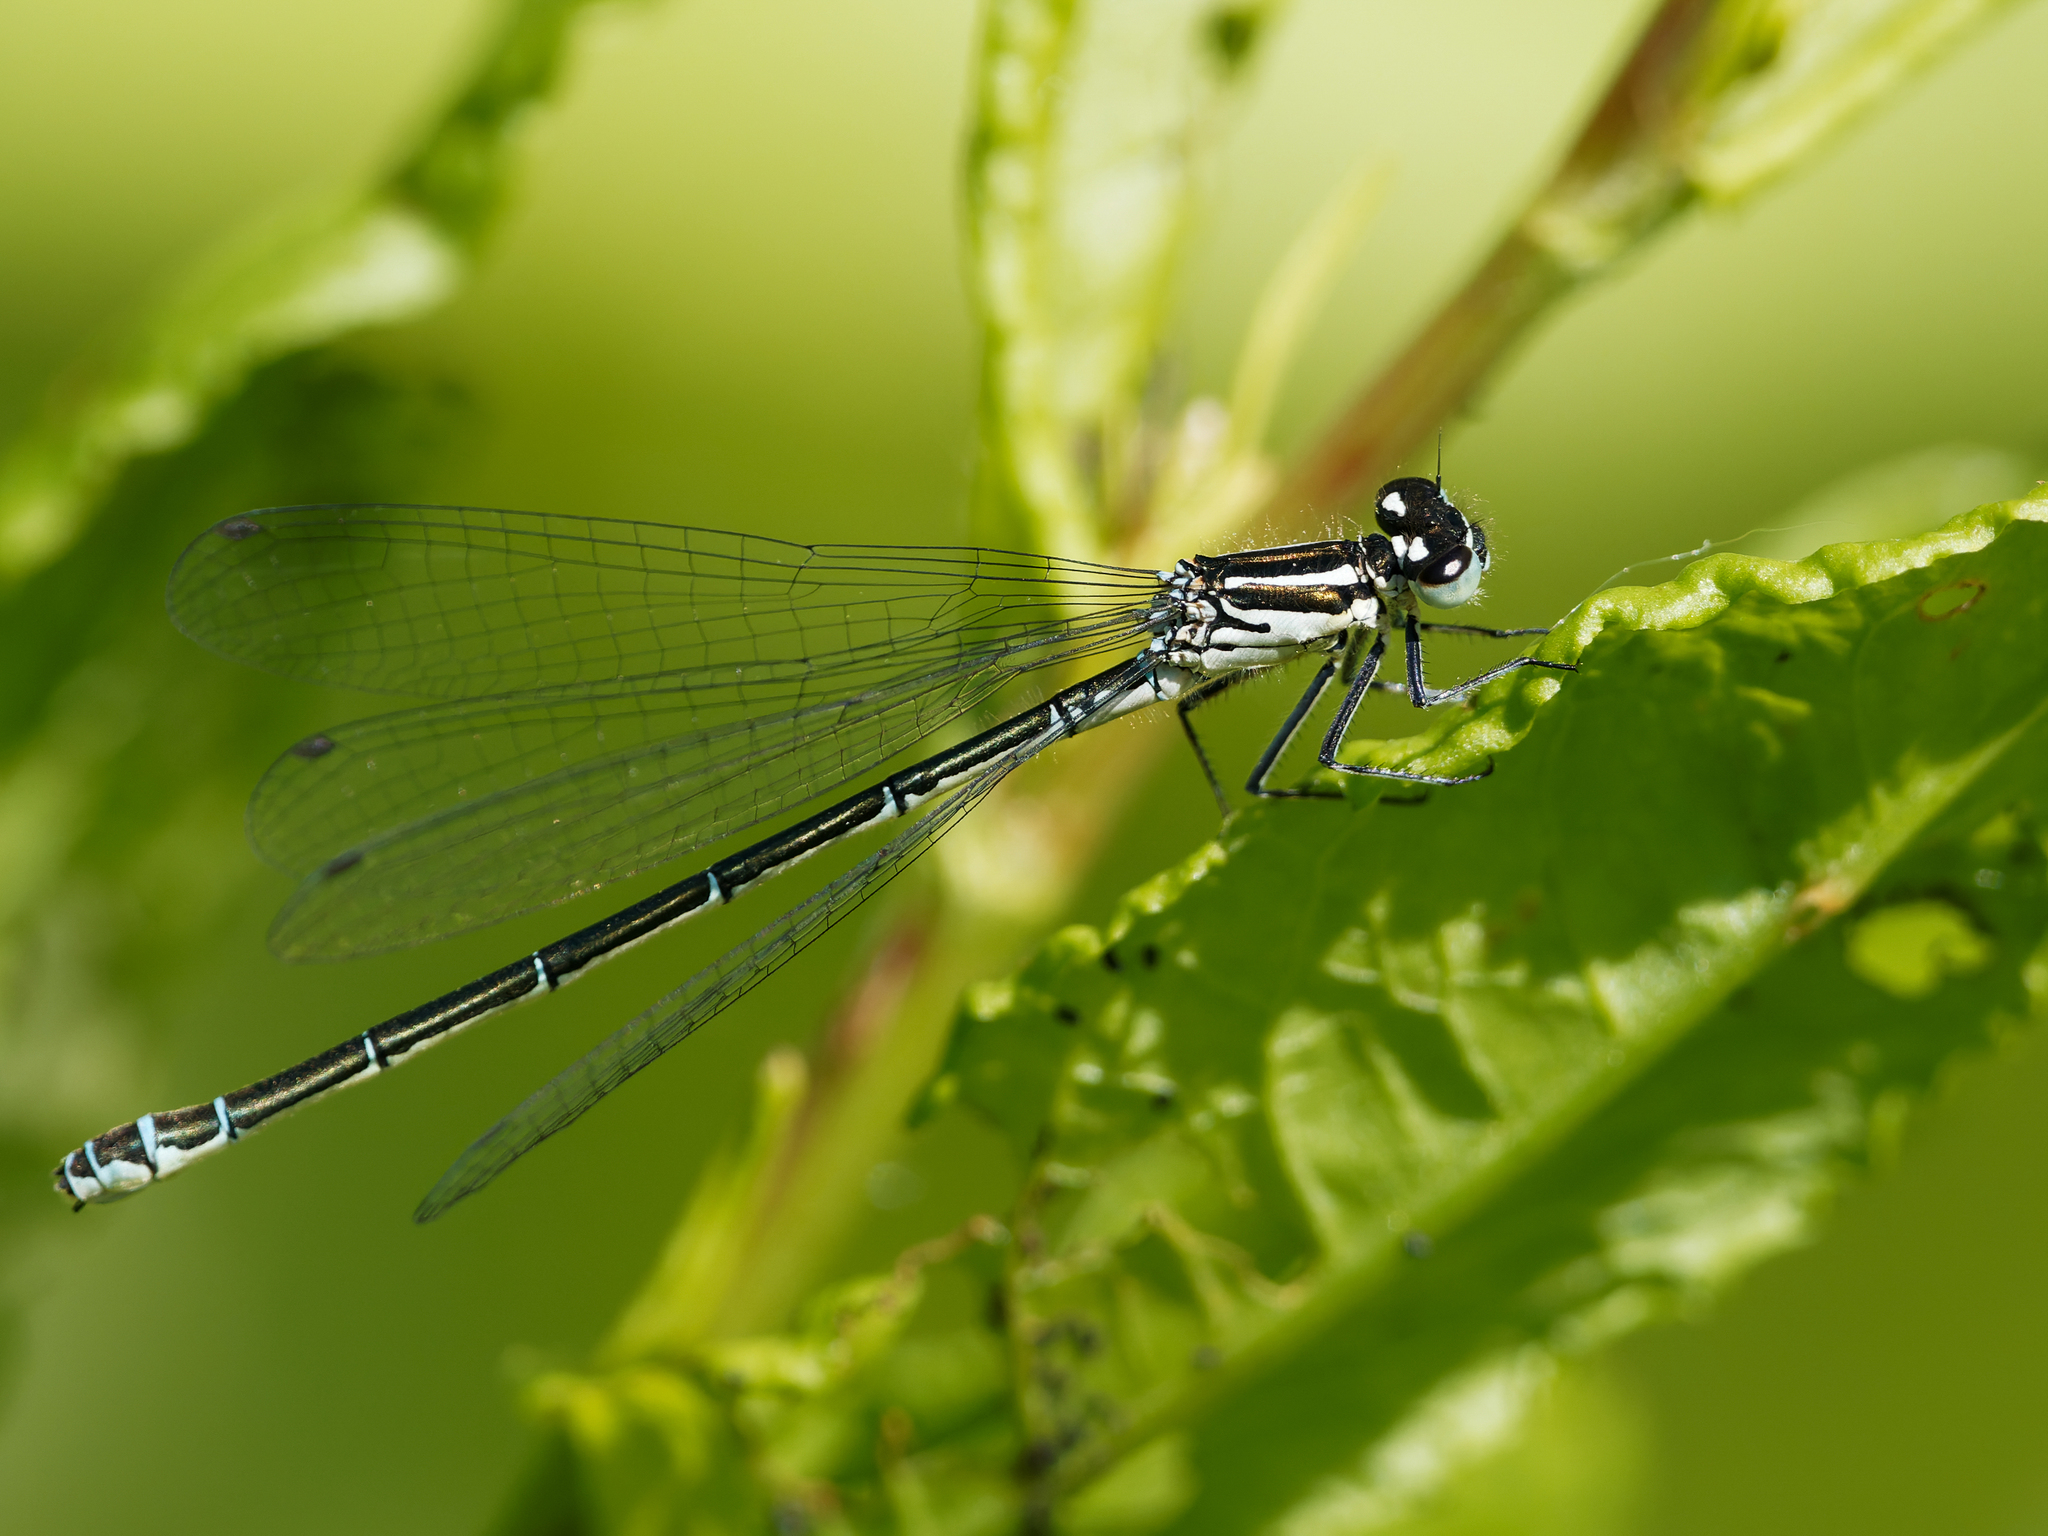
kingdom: Animalia
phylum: Arthropoda
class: Insecta
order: Odonata
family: Coenagrionidae
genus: Coenagrion
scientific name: Coenagrion puella
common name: Azure damselfly
